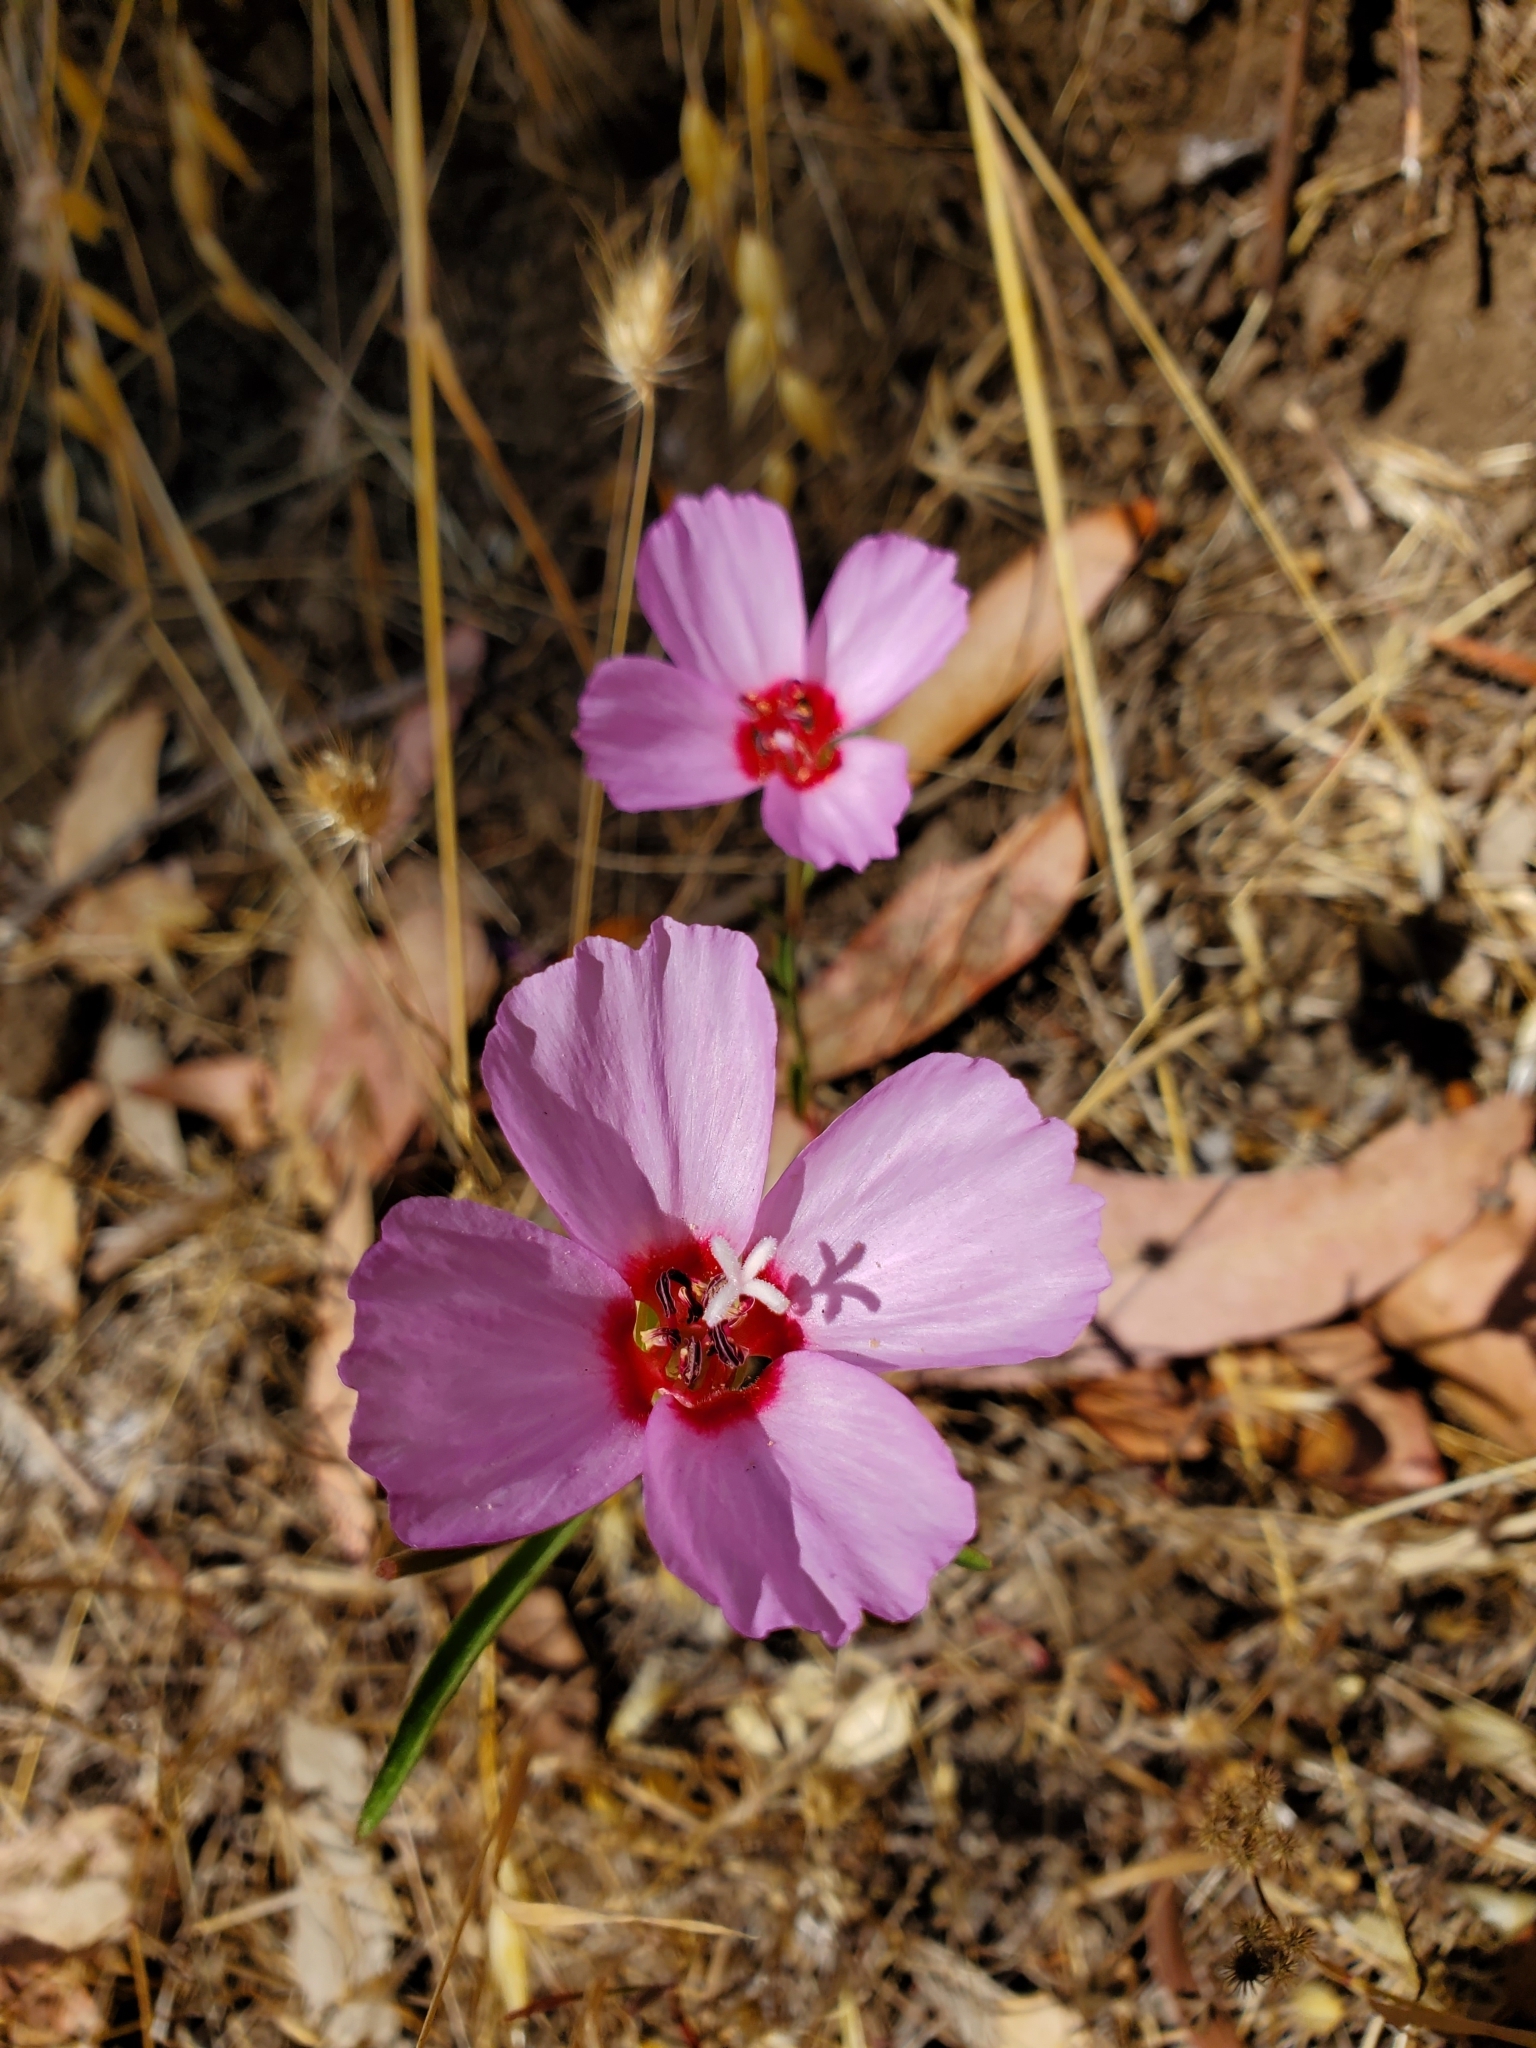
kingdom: Plantae
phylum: Tracheophyta
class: Magnoliopsida
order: Myrtales
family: Onagraceae
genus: Clarkia
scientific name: Clarkia rubicunda
